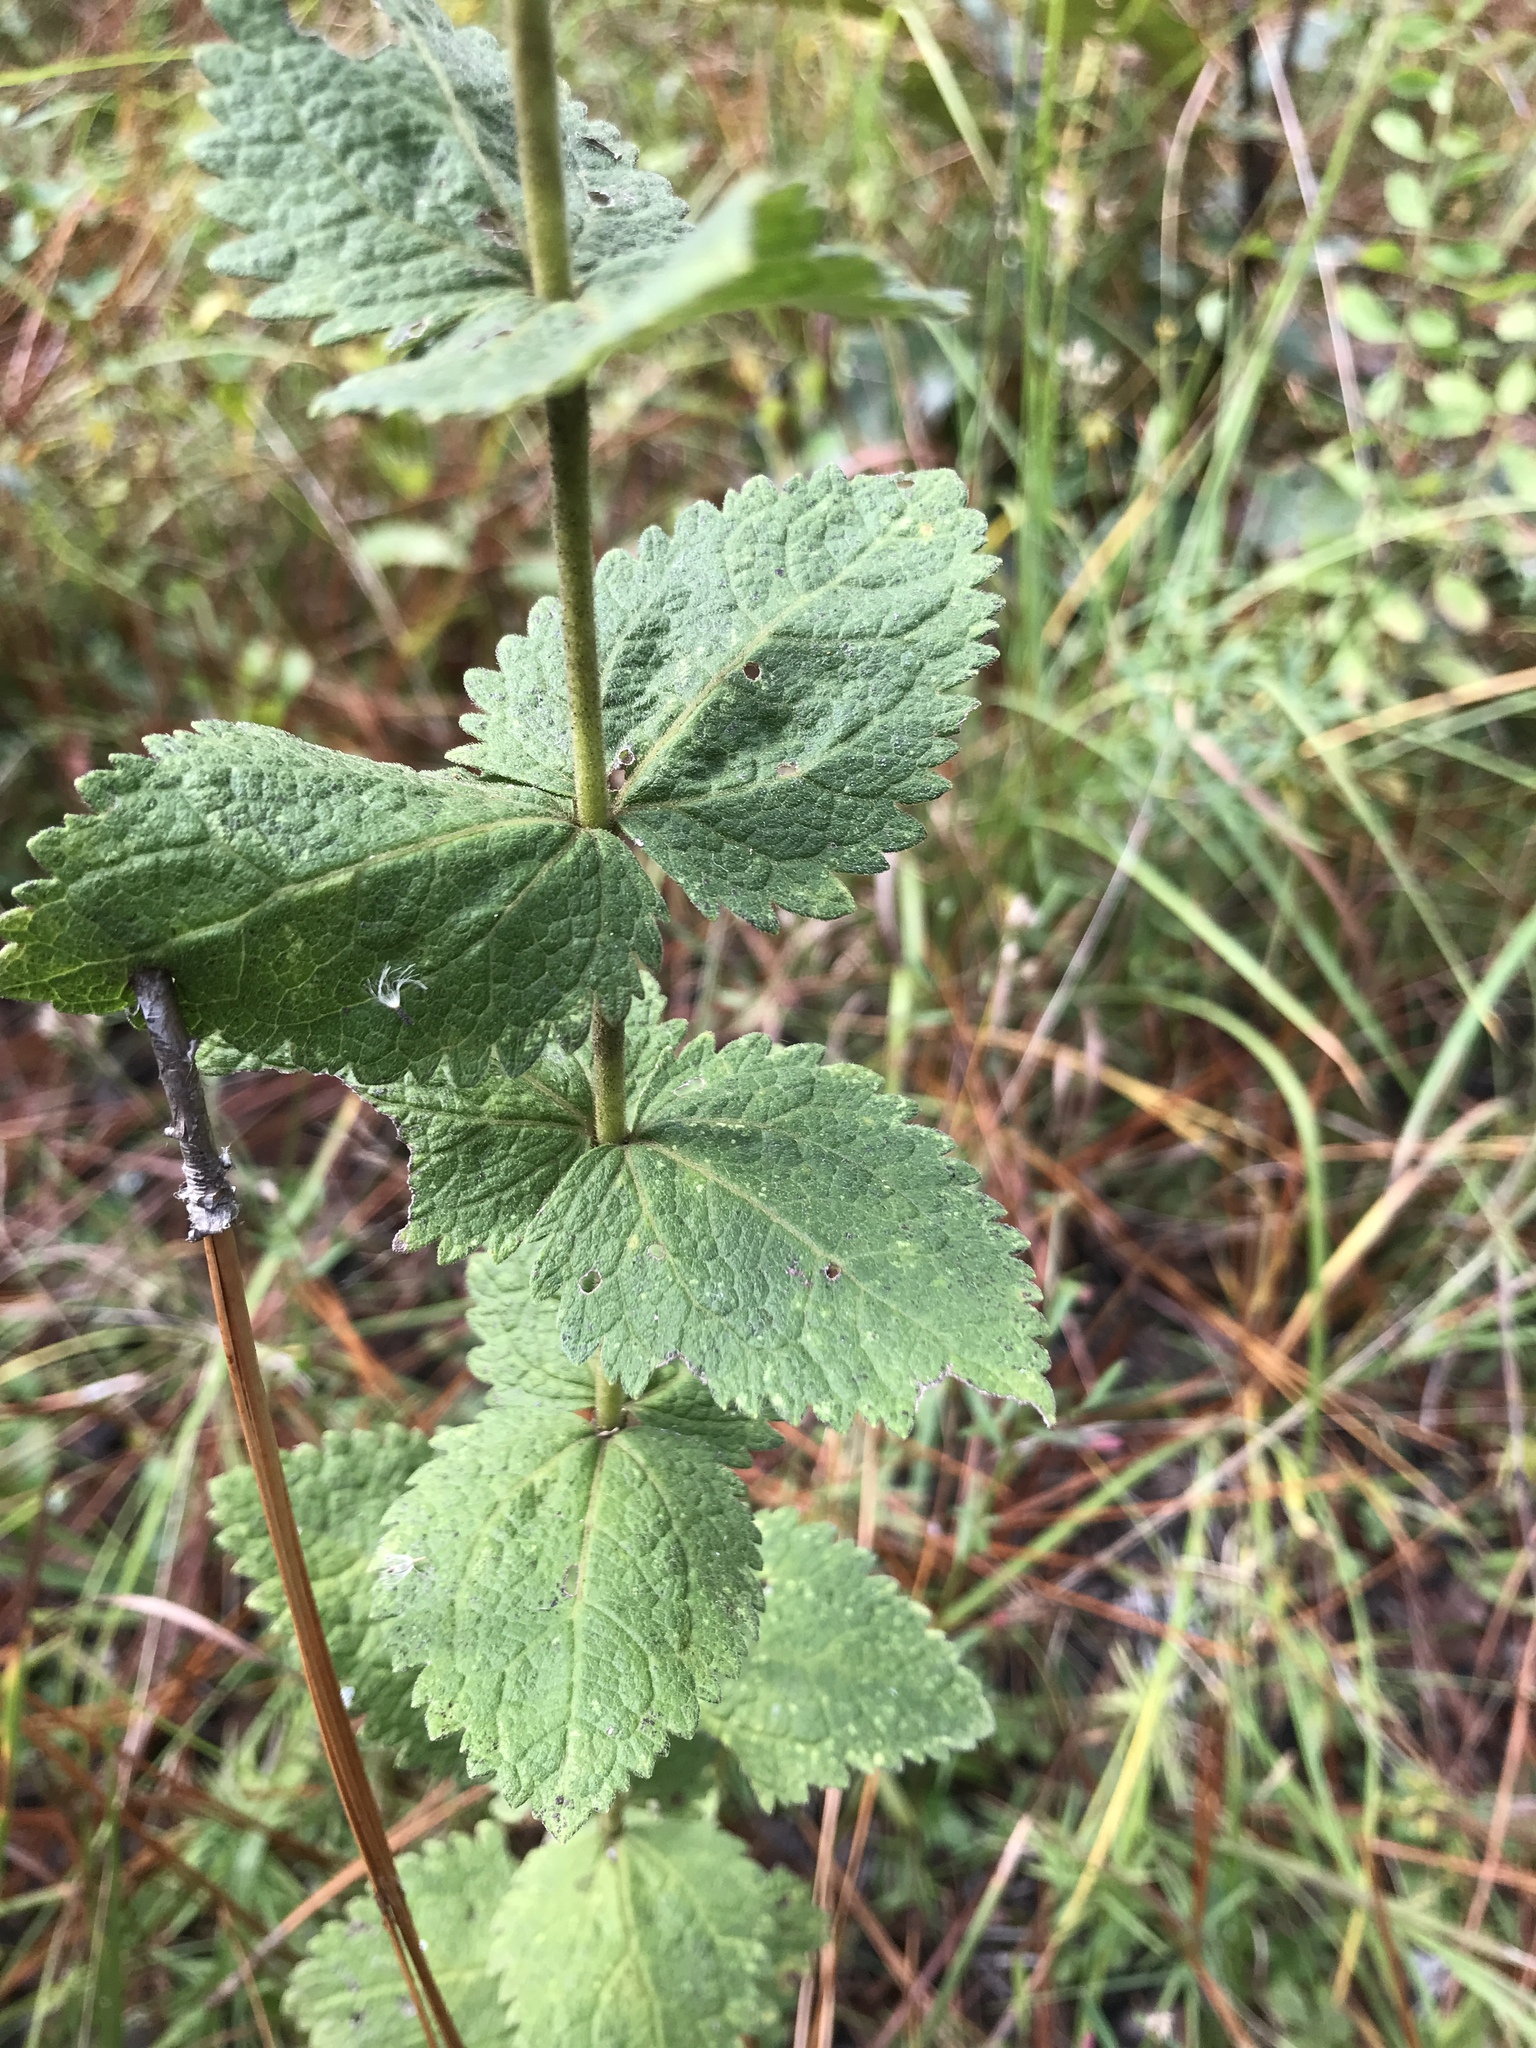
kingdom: Plantae
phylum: Tracheophyta
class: Magnoliopsida
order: Asterales
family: Asteraceae
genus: Eupatorium
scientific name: Eupatorium rotundifolium
